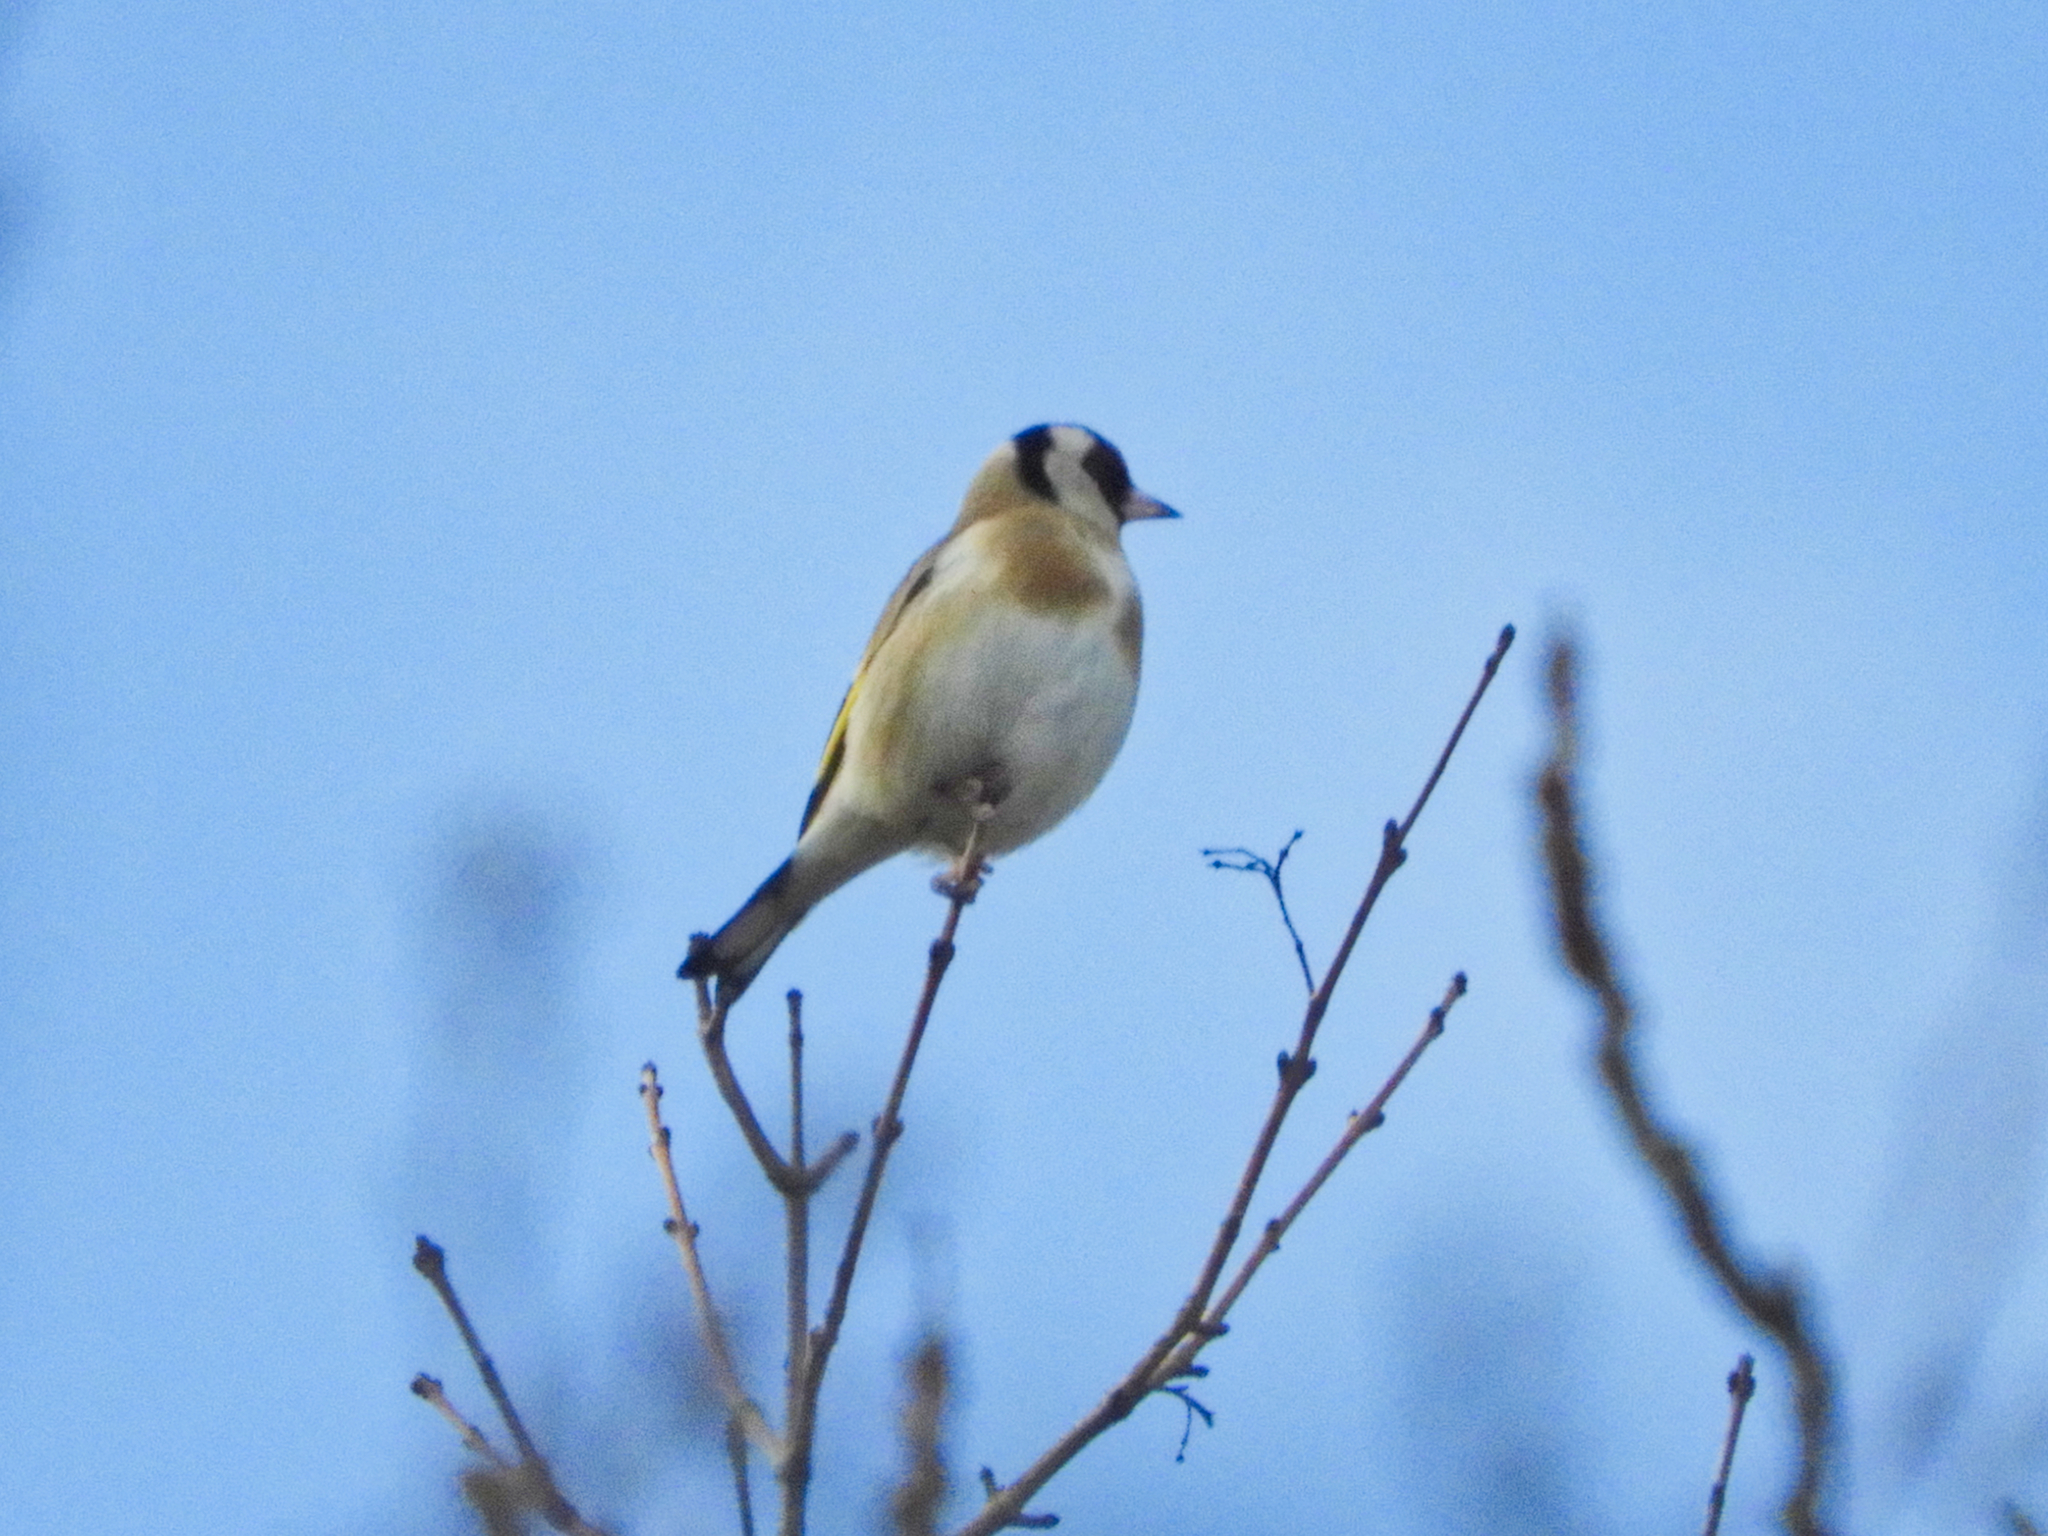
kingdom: Animalia
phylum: Chordata
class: Aves
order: Passeriformes
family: Fringillidae
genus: Carduelis
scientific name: Carduelis carduelis
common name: European goldfinch
